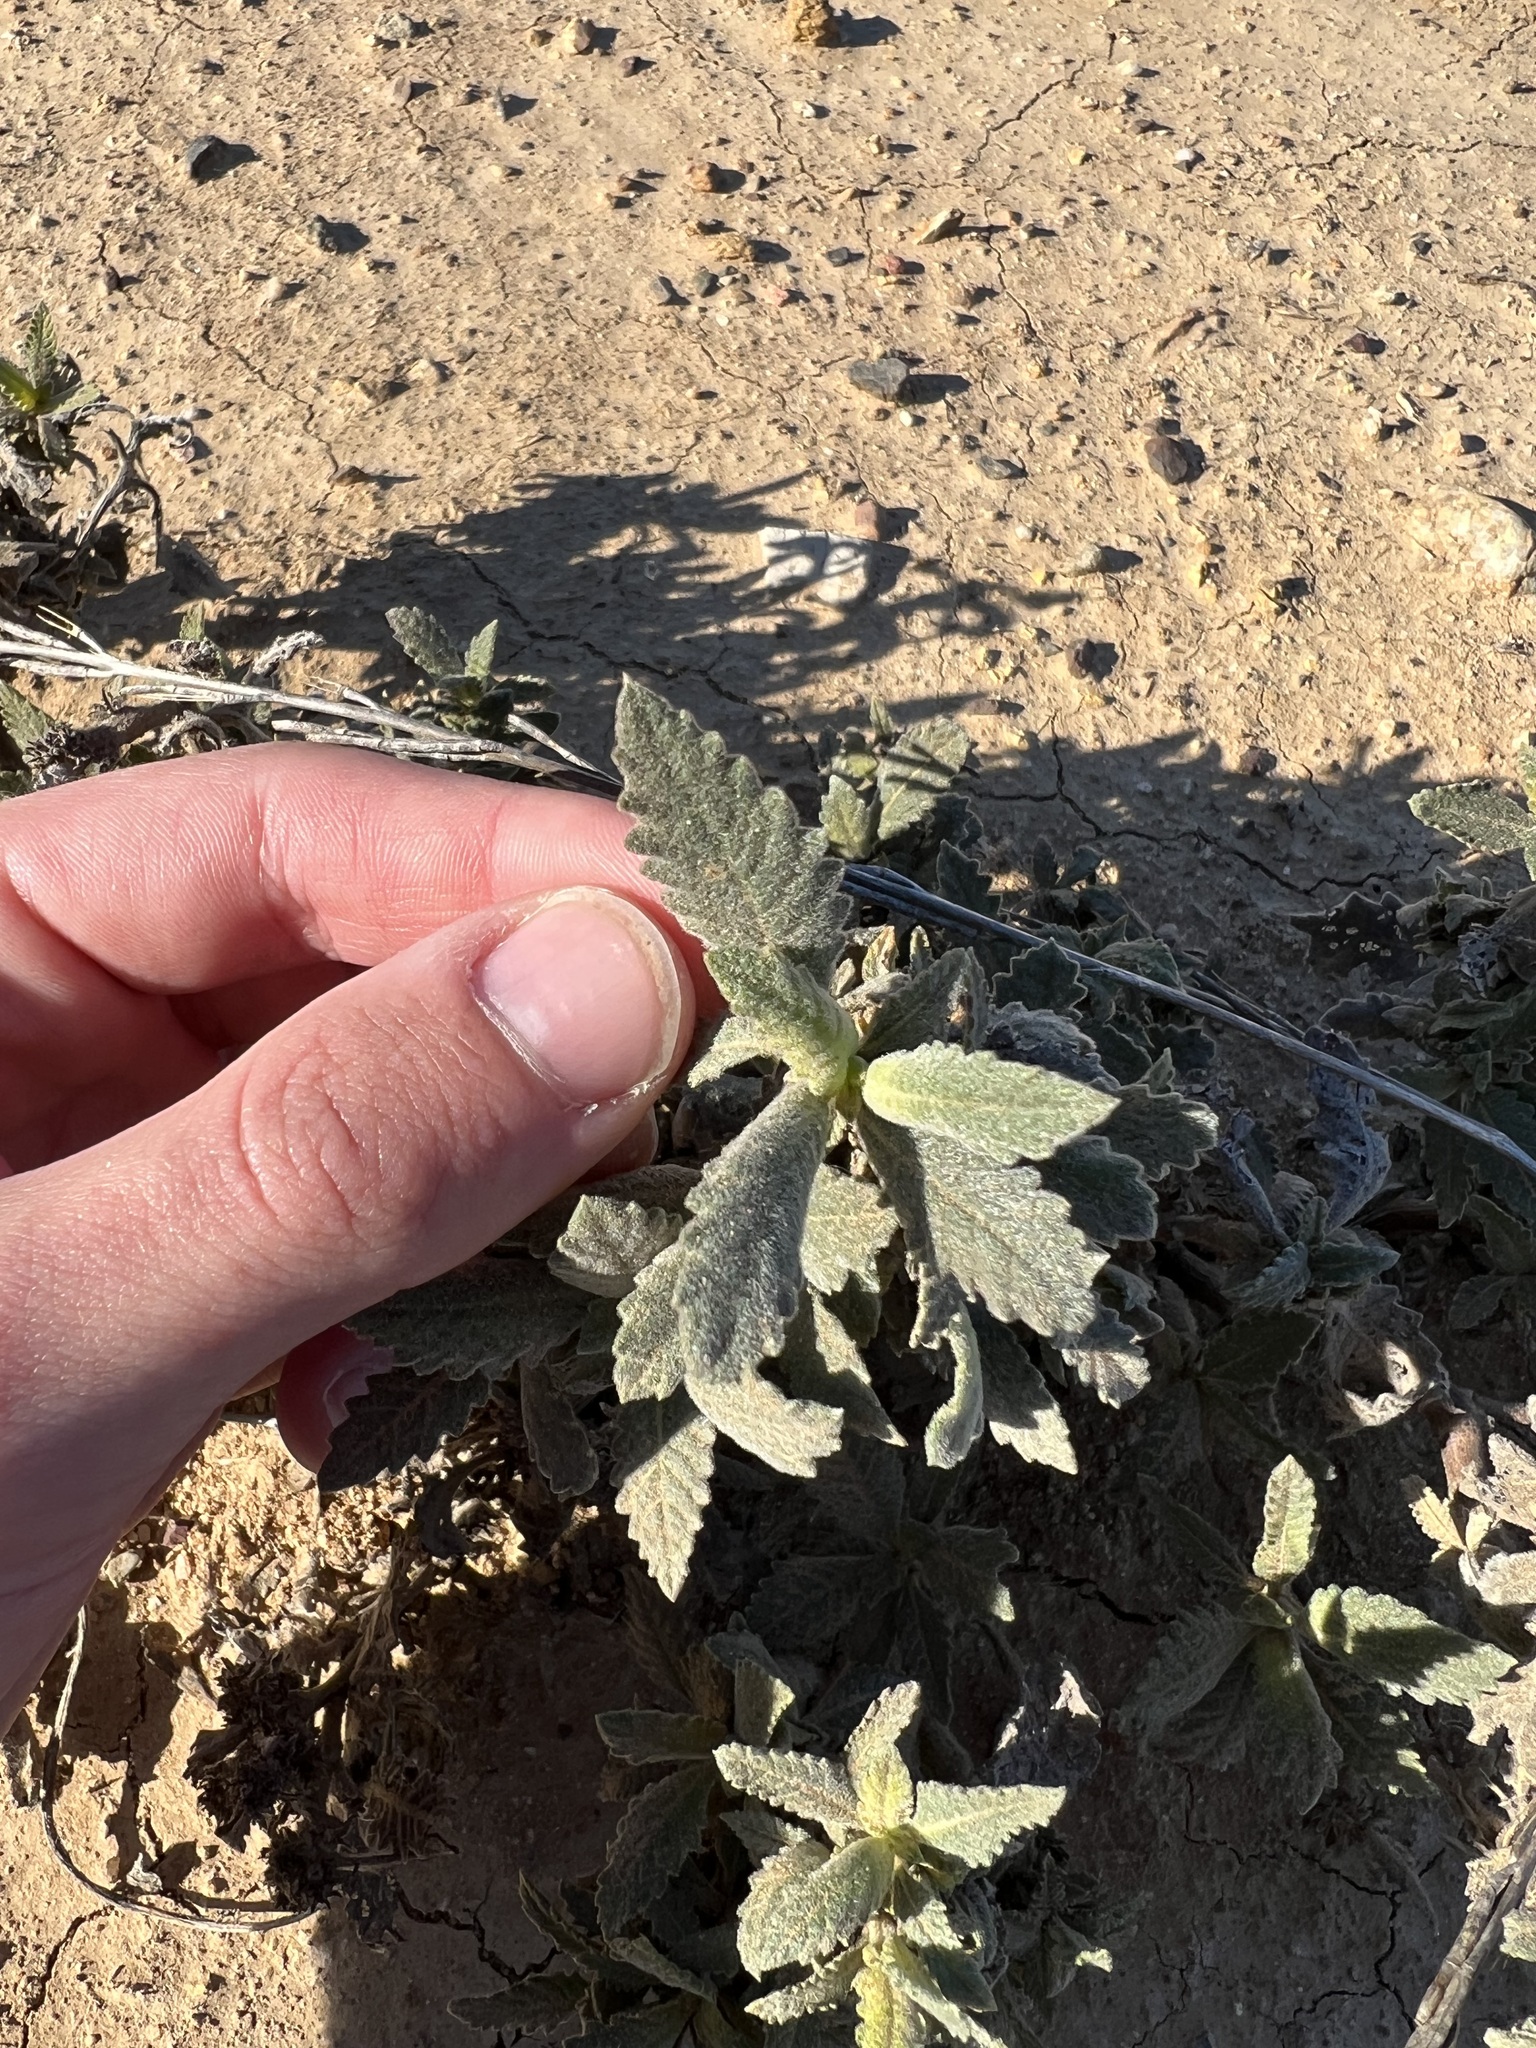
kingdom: Plantae
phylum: Tracheophyta
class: Magnoliopsida
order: Boraginales
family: Namaceae
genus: Eriodictyon
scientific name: Eriodictyon crassifolium
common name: Thick-leaf yerba-santa
